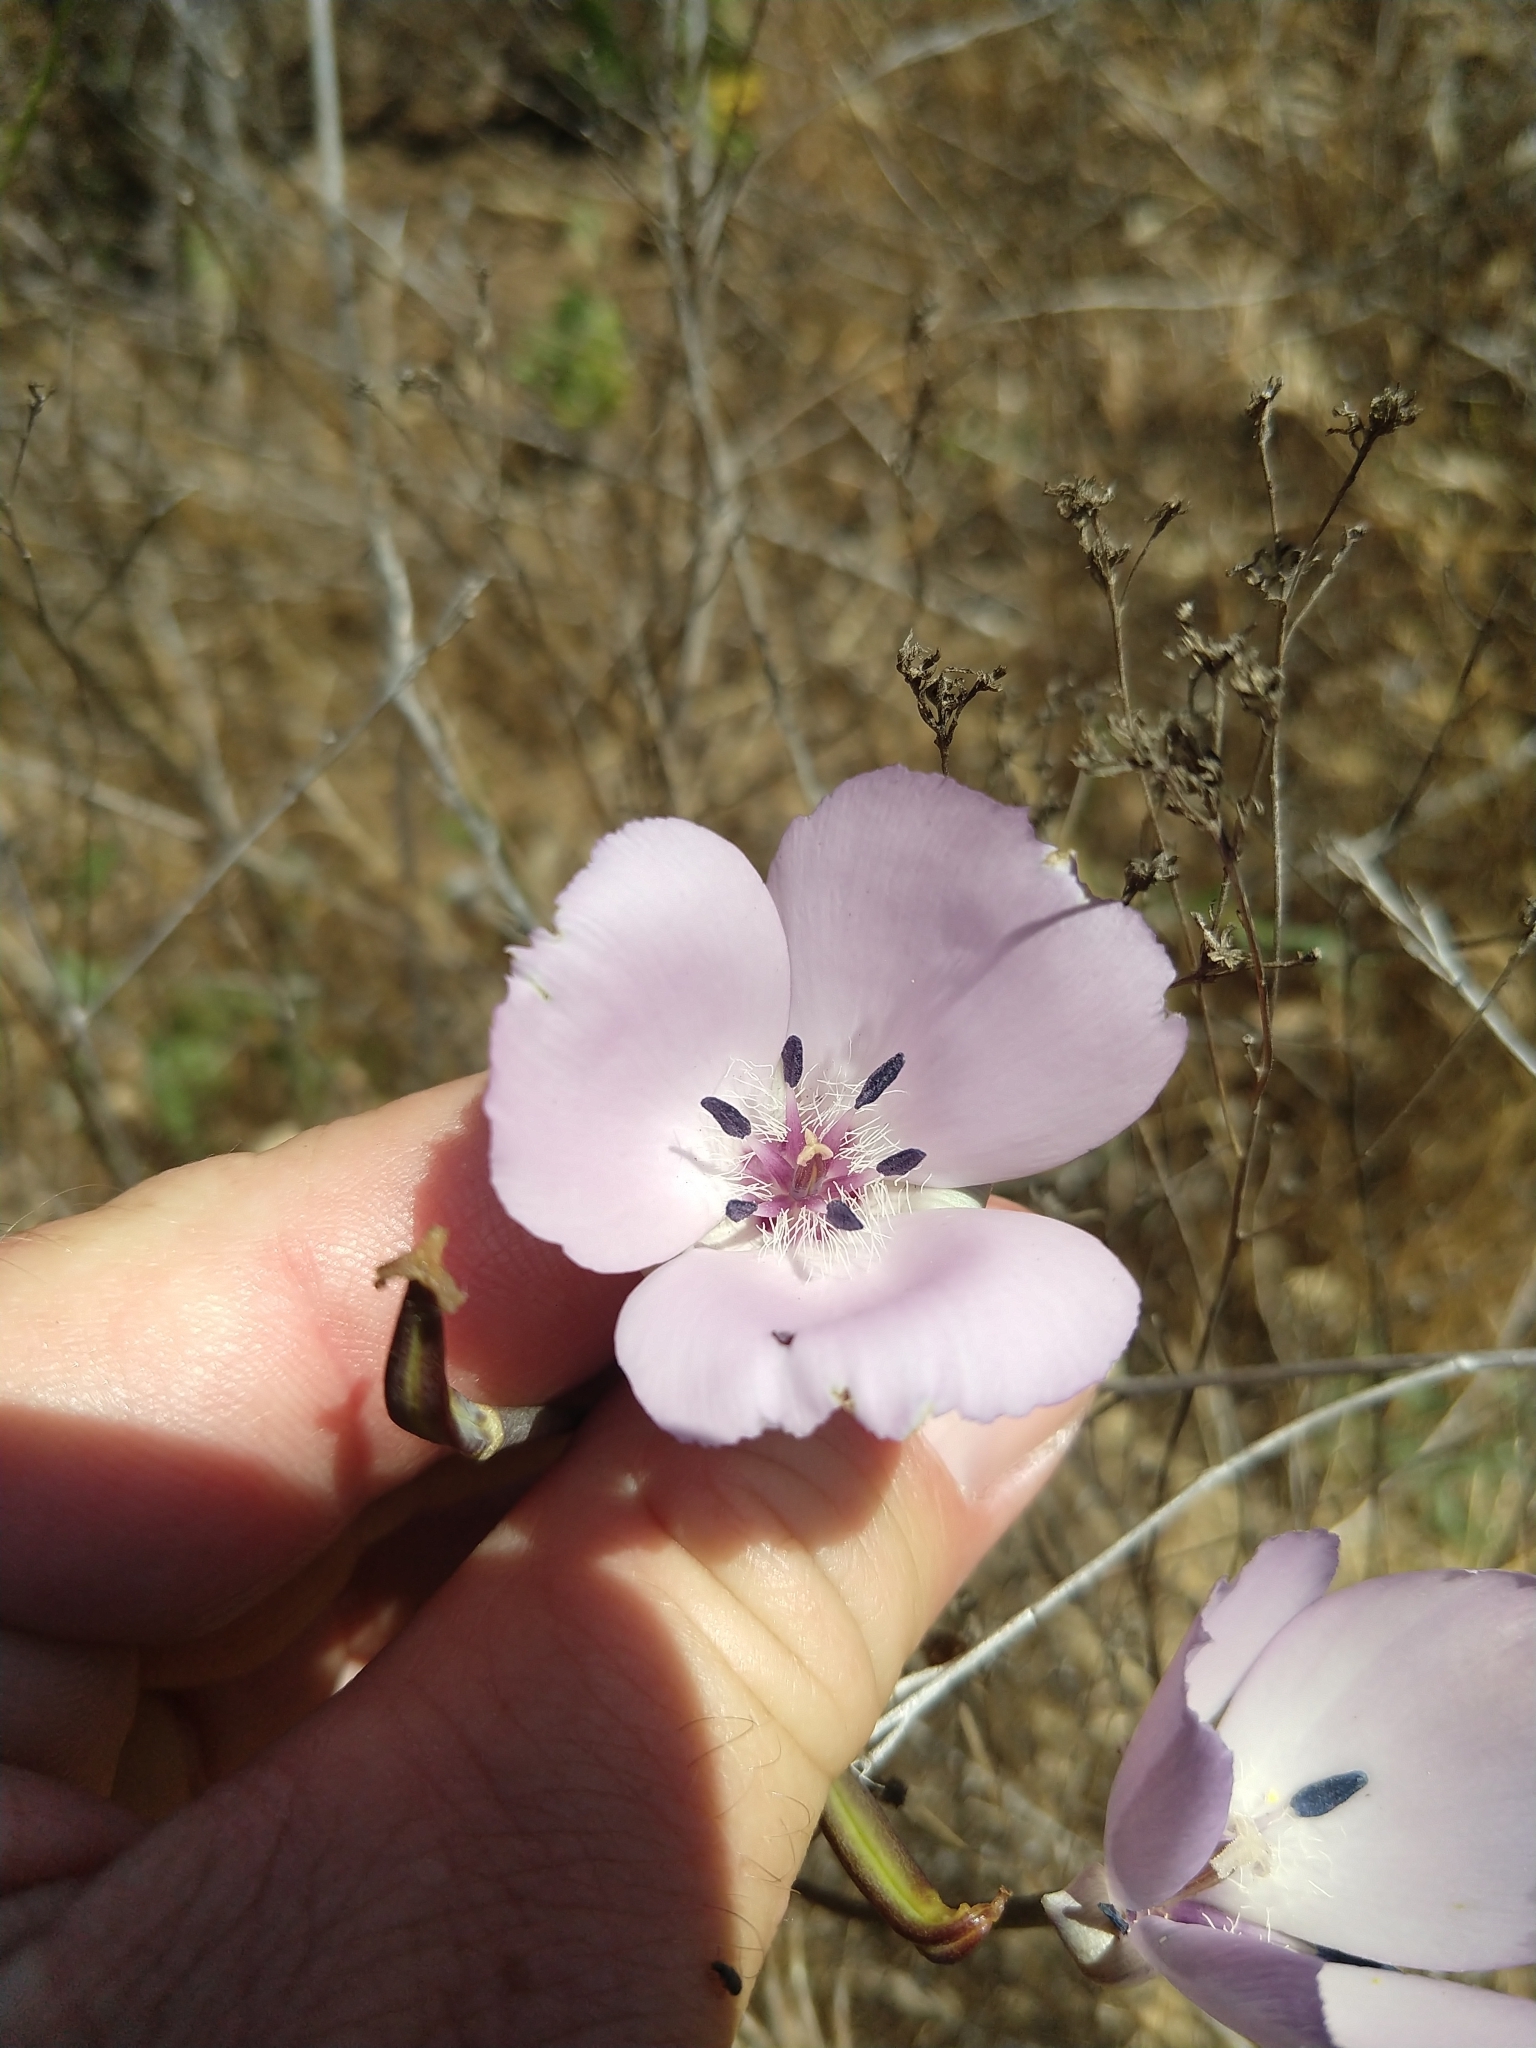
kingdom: Plantae
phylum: Tracheophyta
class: Liliopsida
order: Liliales
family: Liliaceae
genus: Calochortus
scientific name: Calochortus splendens
